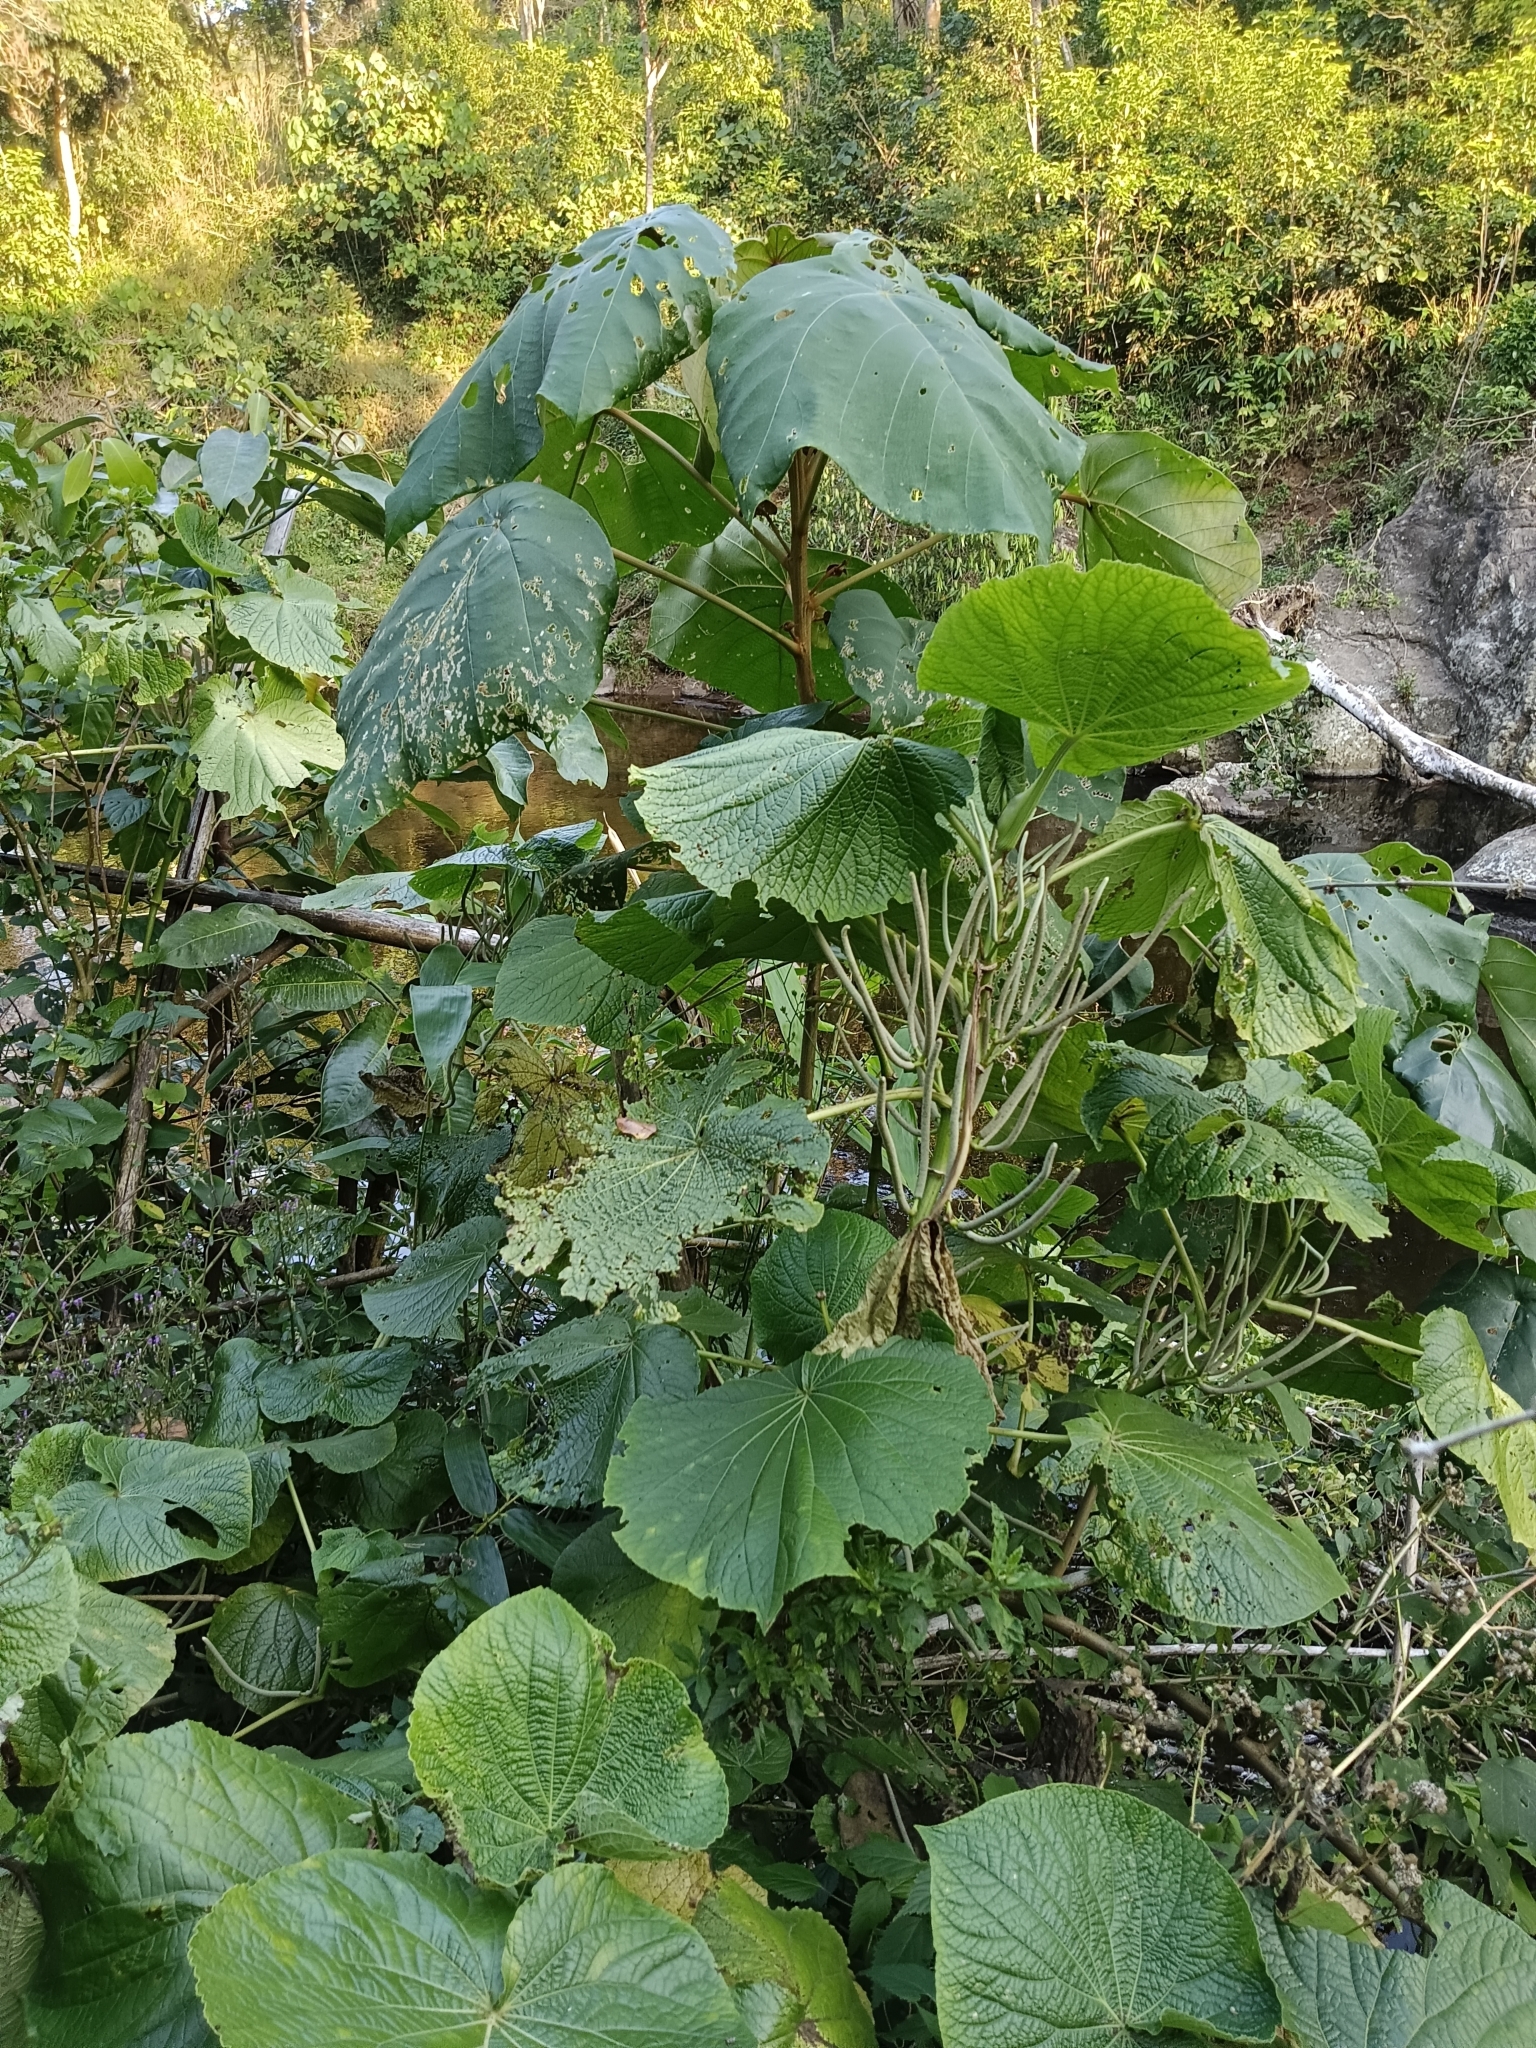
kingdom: Plantae
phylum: Tracheophyta
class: Magnoliopsida
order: Piperales
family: Piperaceae
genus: Piper
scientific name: Piper umbellatum
